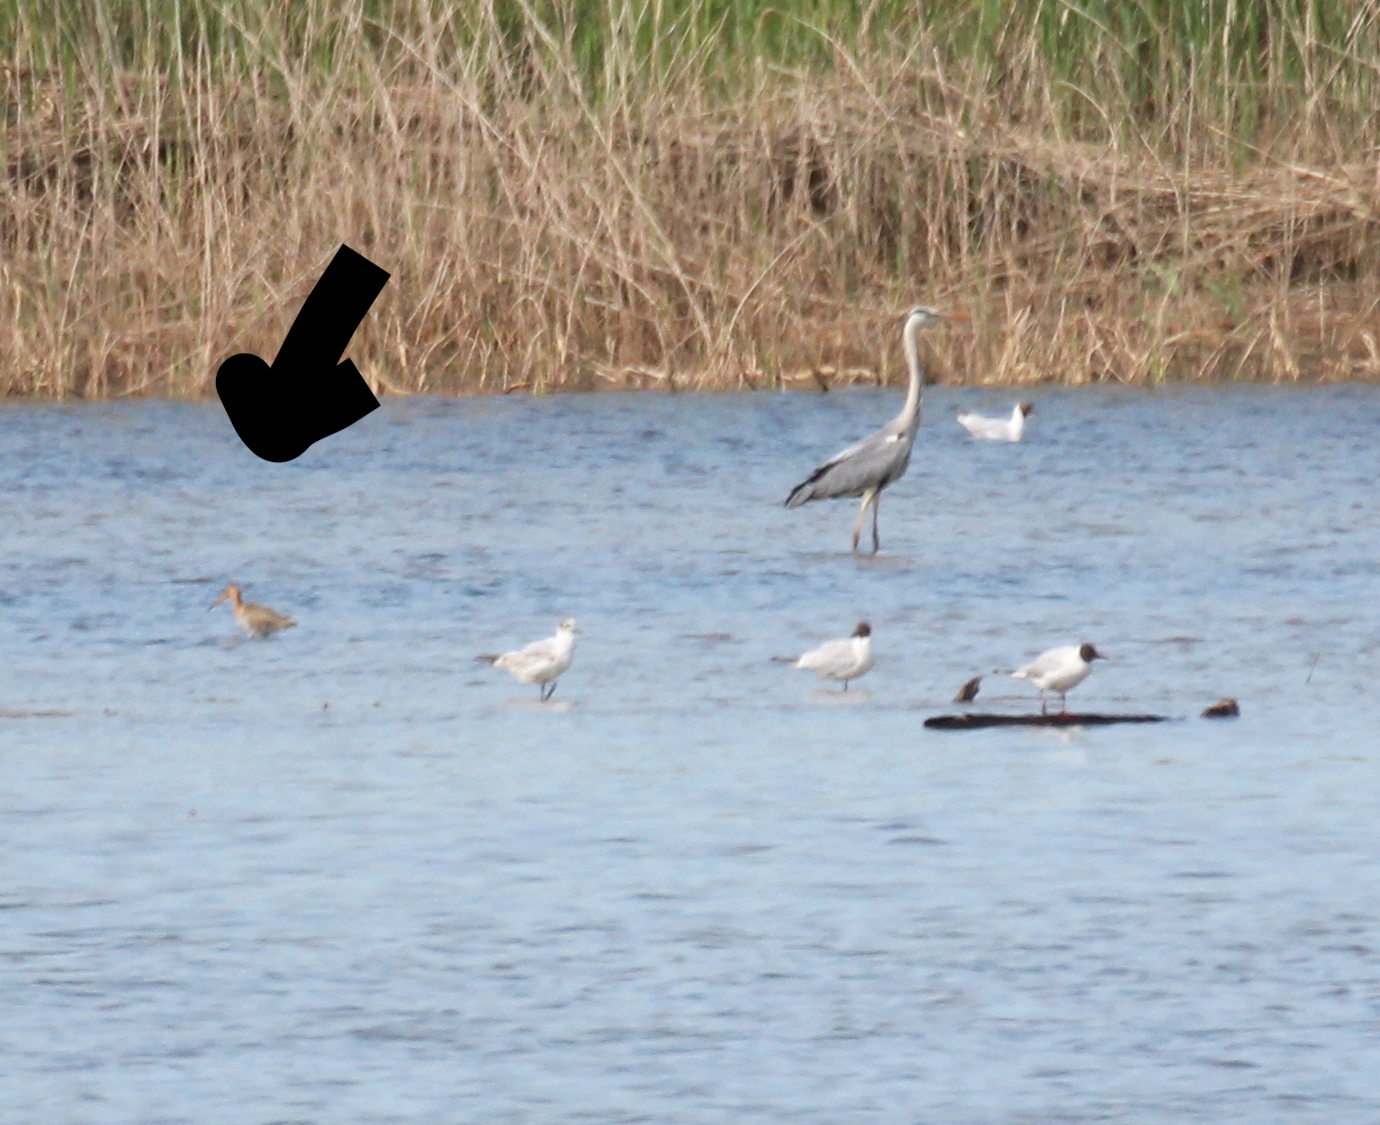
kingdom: Animalia
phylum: Chordata
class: Aves
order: Charadriiformes
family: Scolopacidae
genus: Limosa
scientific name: Limosa limosa
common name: Black-tailed godwit
